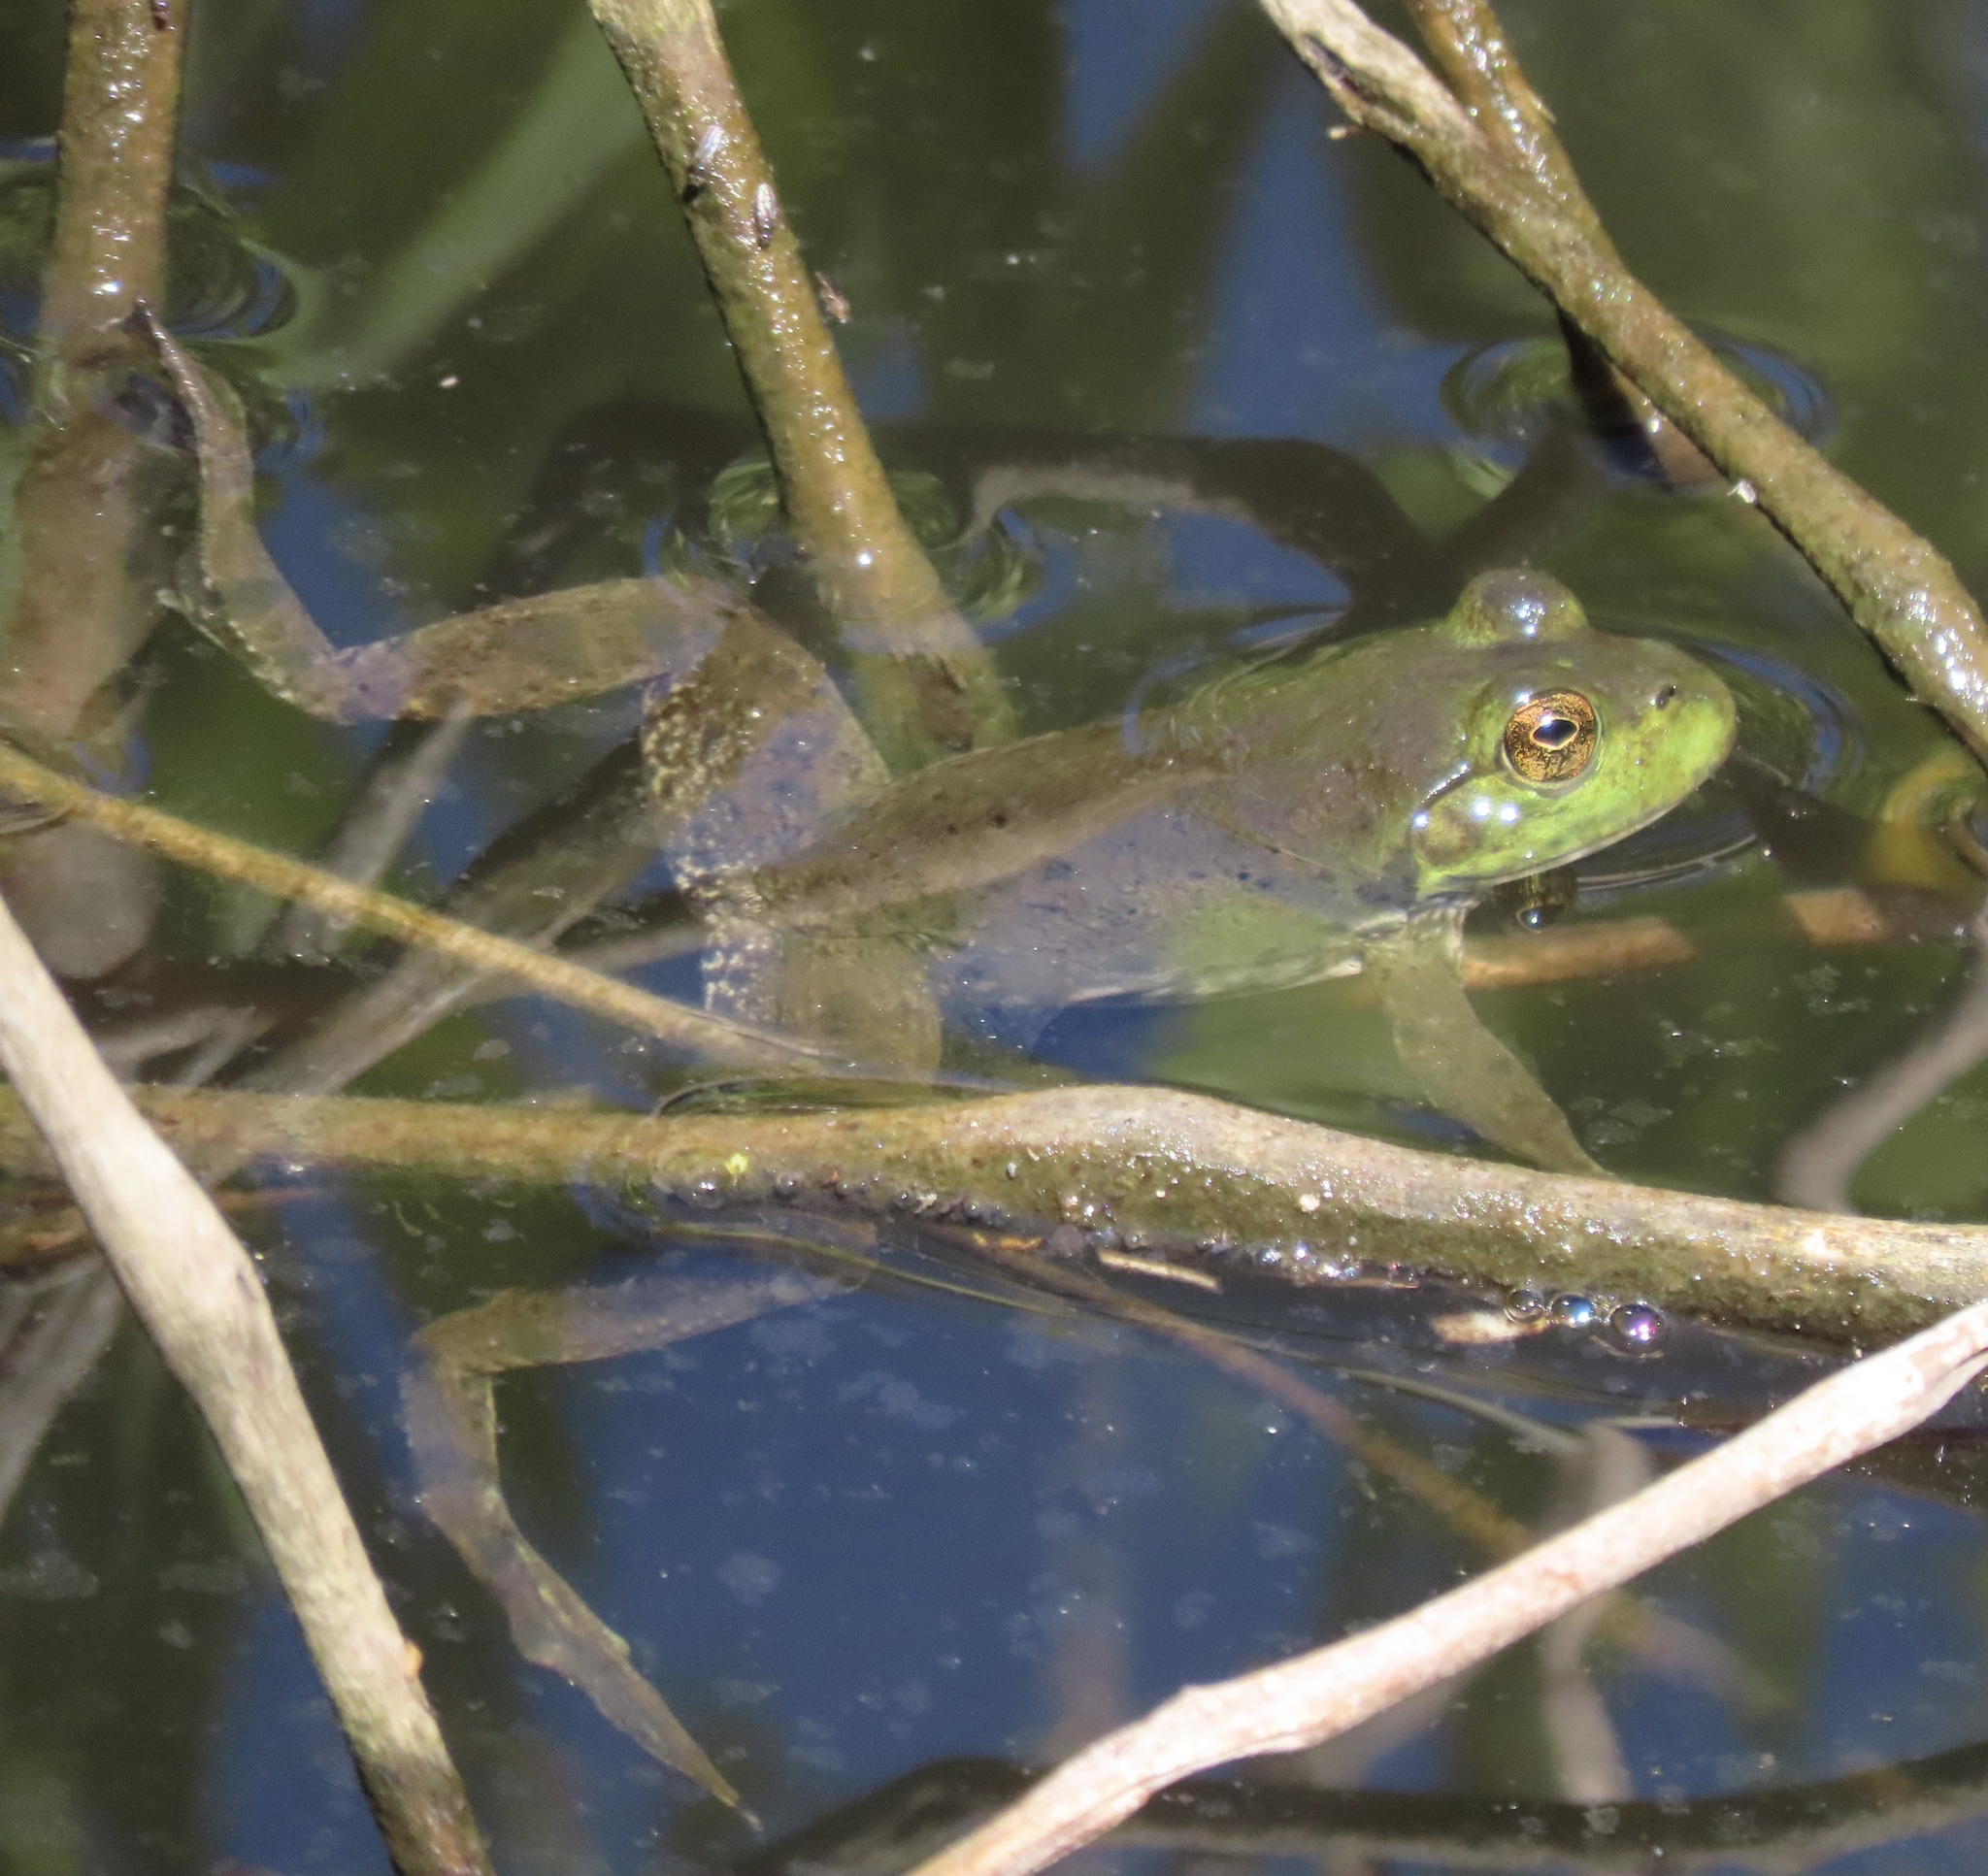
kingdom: Animalia
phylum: Chordata
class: Amphibia
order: Anura
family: Ranidae
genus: Lithobates
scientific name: Lithobates catesbeianus
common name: American bullfrog
